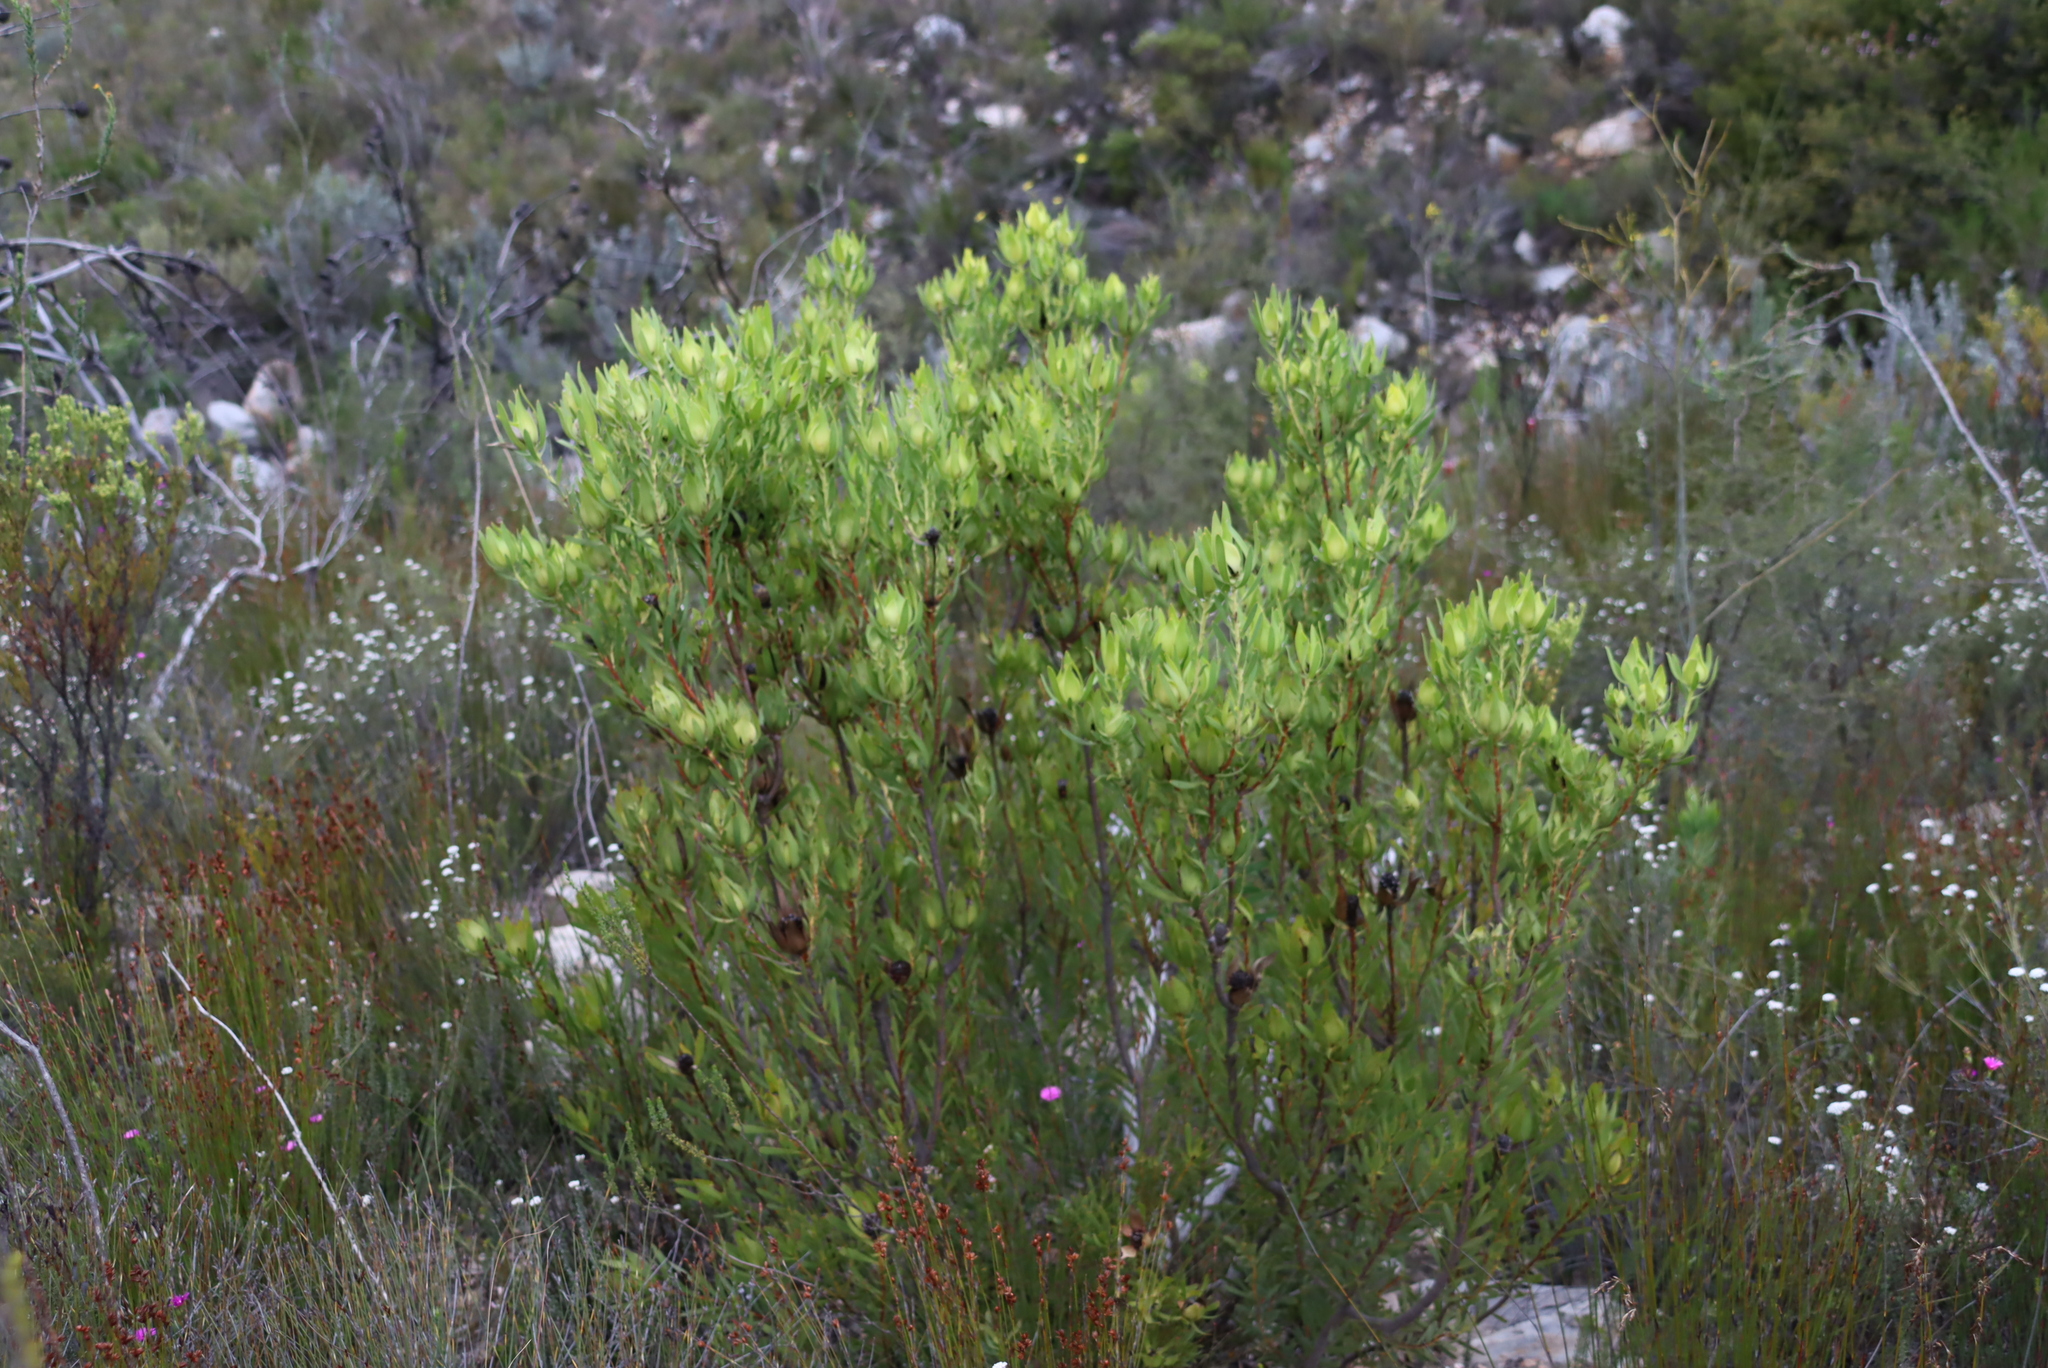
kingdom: Plantae
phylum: Tracheophyta
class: Magnoliopsida
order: Proteales
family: Proteaceae
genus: Leucadendron
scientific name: Leucadendron salignum
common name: Common sunshine conebush
